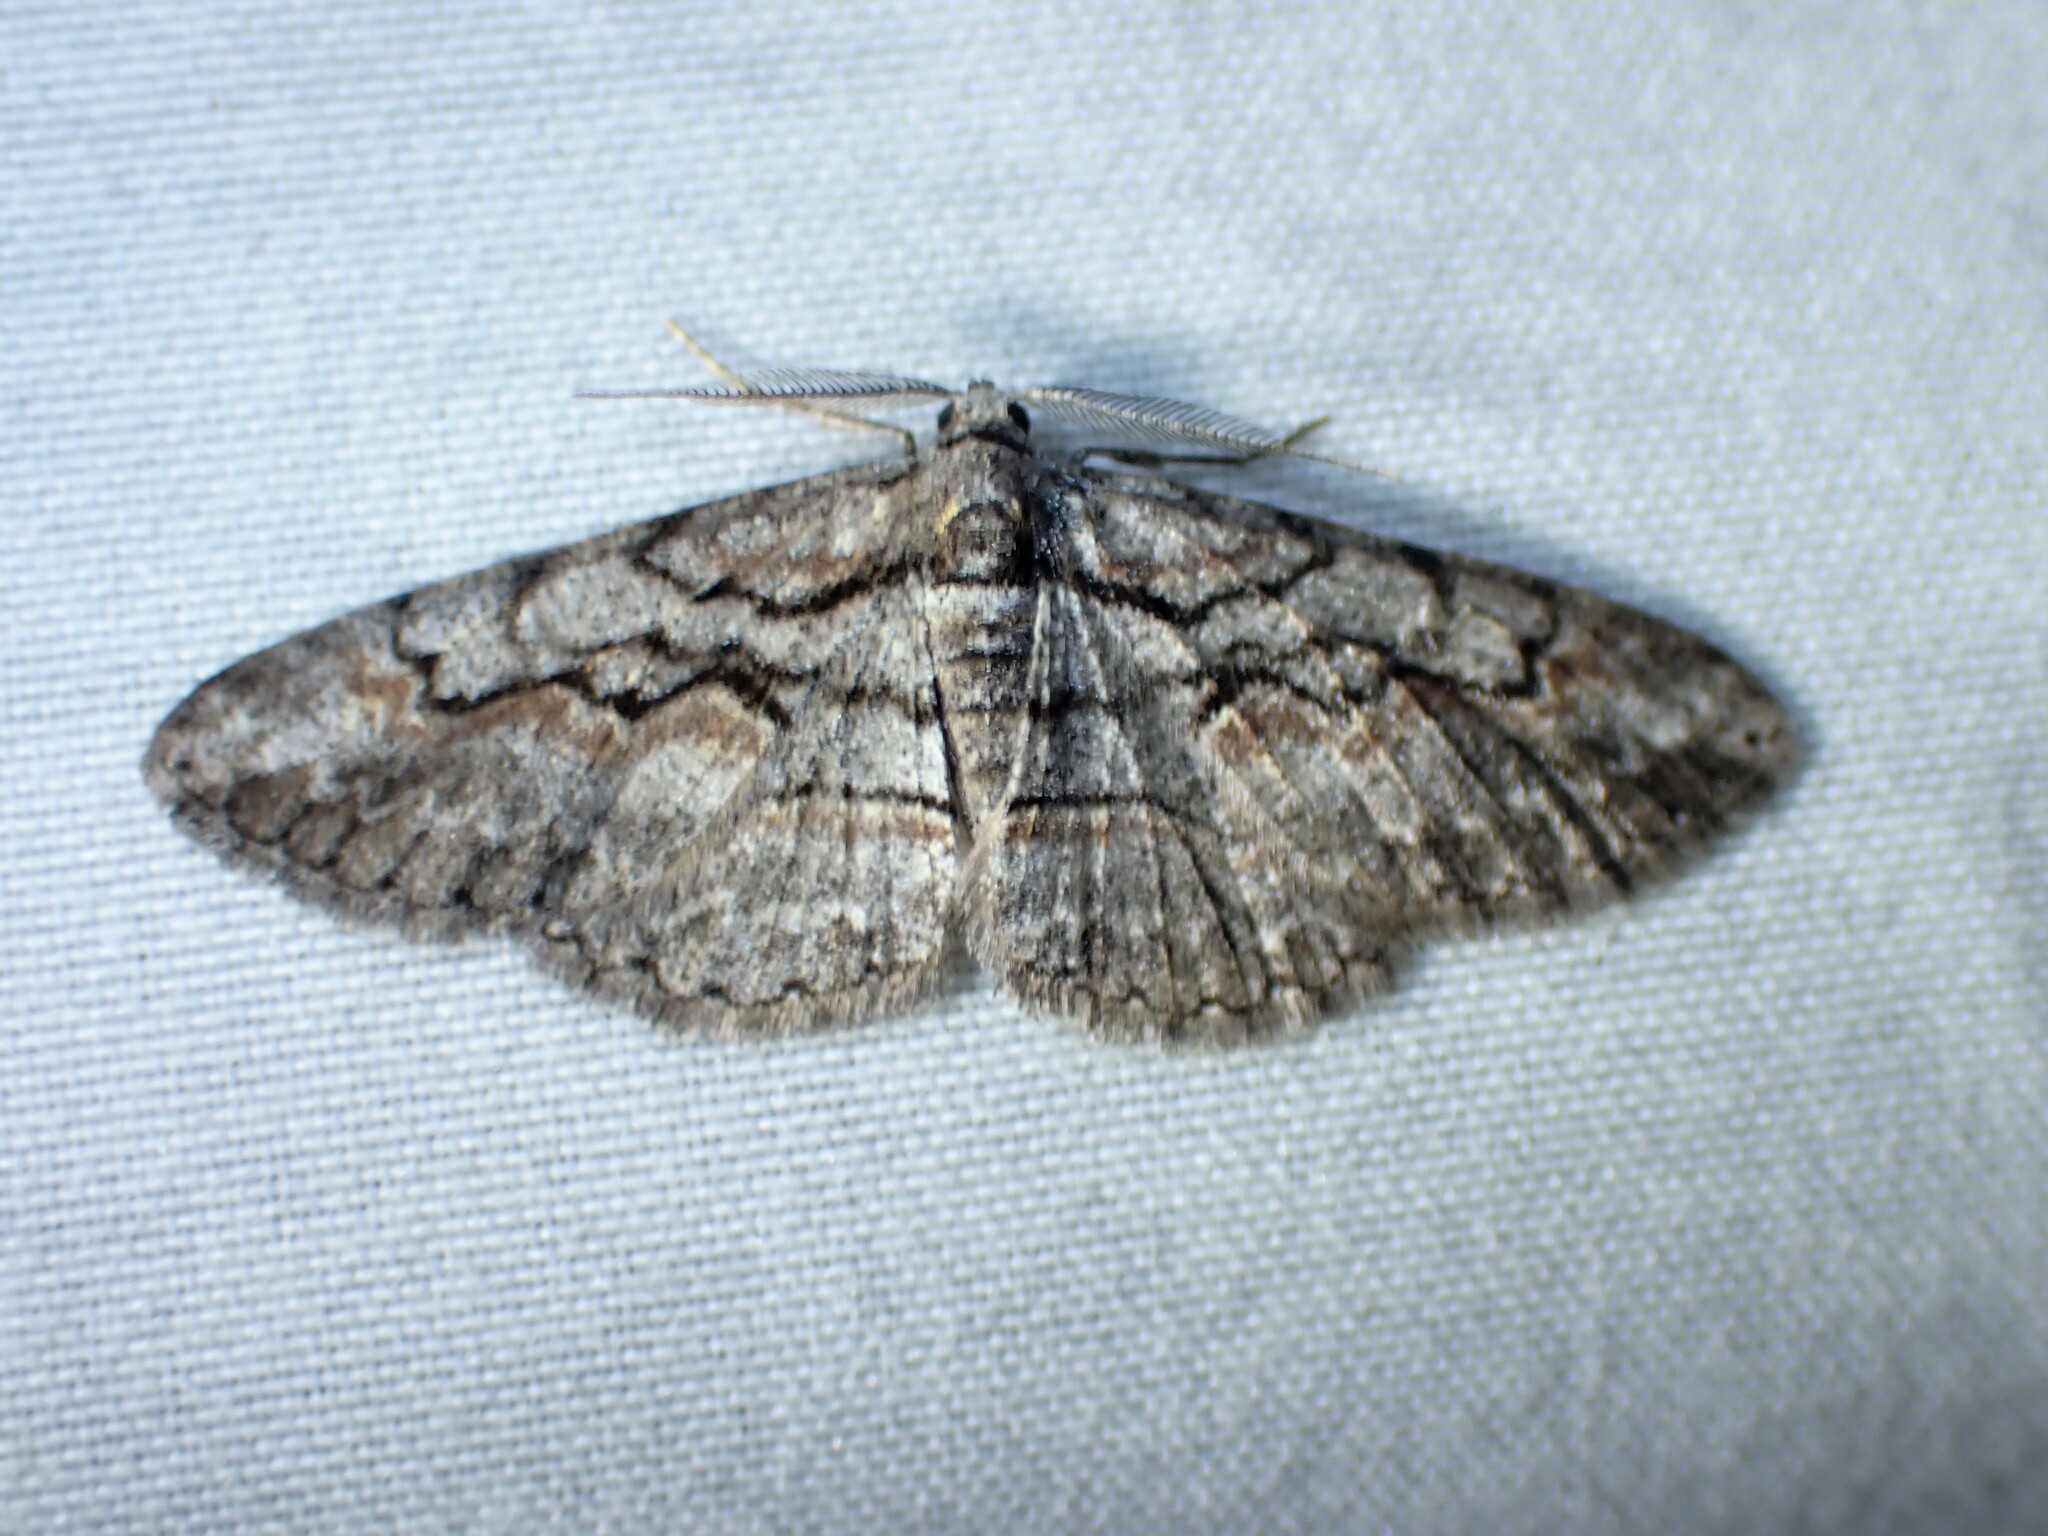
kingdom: Animalia
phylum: Arthropoda
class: Insecta
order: Lepidoptera
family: Geometridae
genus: Iridopsis
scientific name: Iridopsis humaria
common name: Small purplish gray
